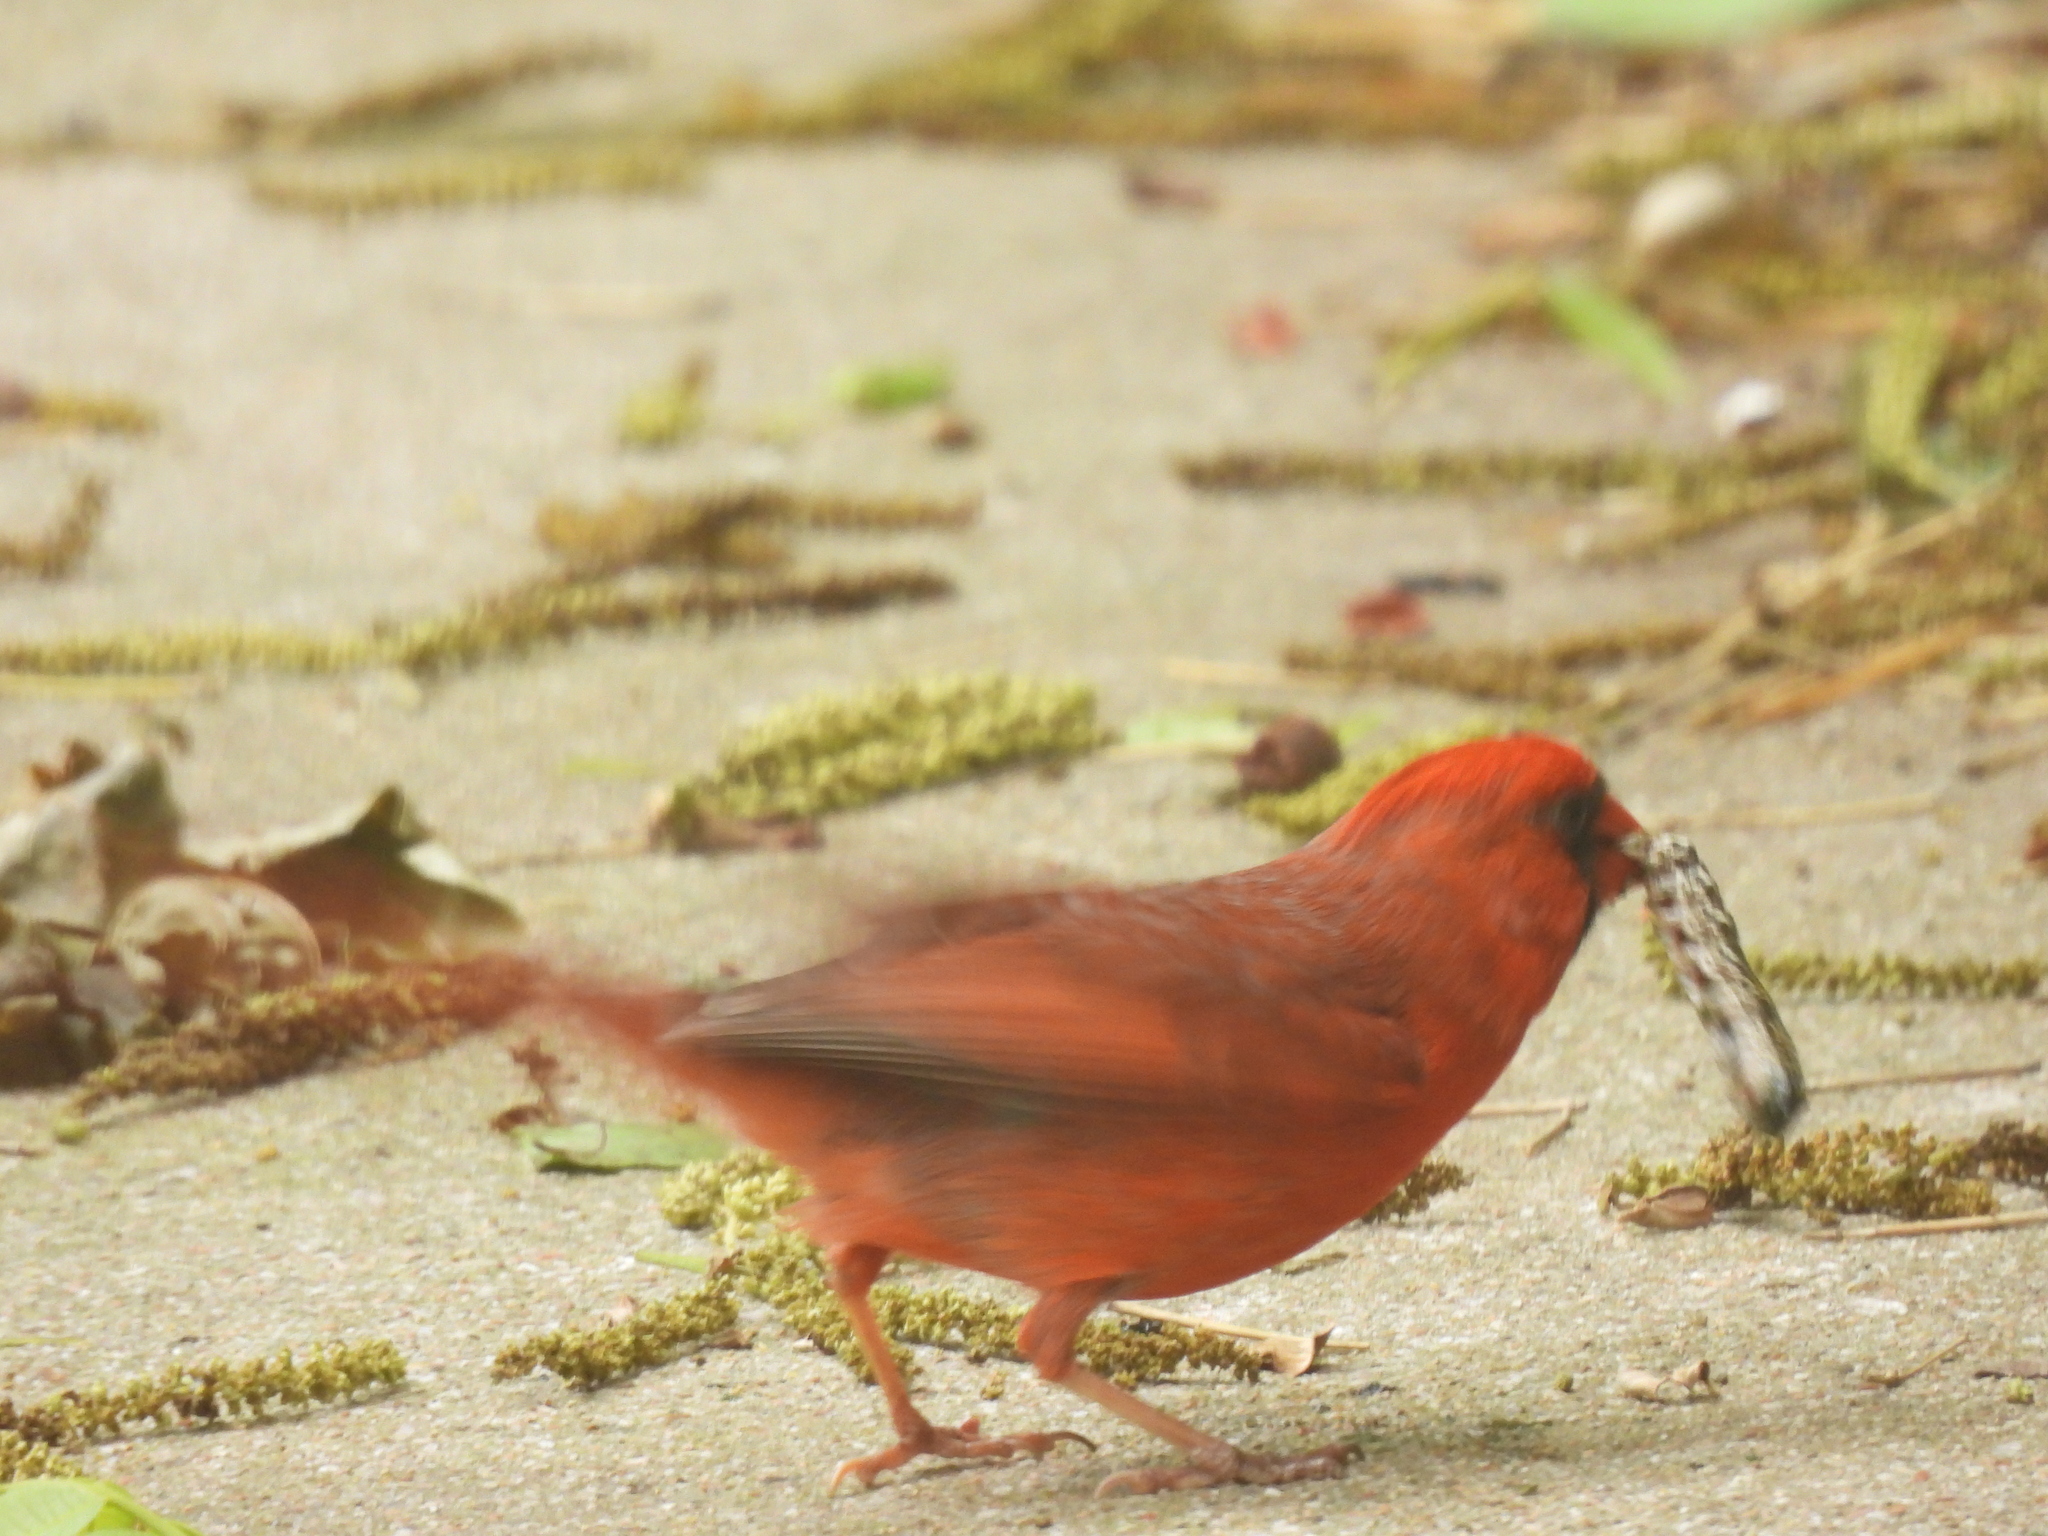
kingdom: Animalia
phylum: Chordata
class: Aves
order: Passeriformes
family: Cardinalidae
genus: Cardinalis
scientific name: Cardinalis cardinalis
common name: Northern cardinal
